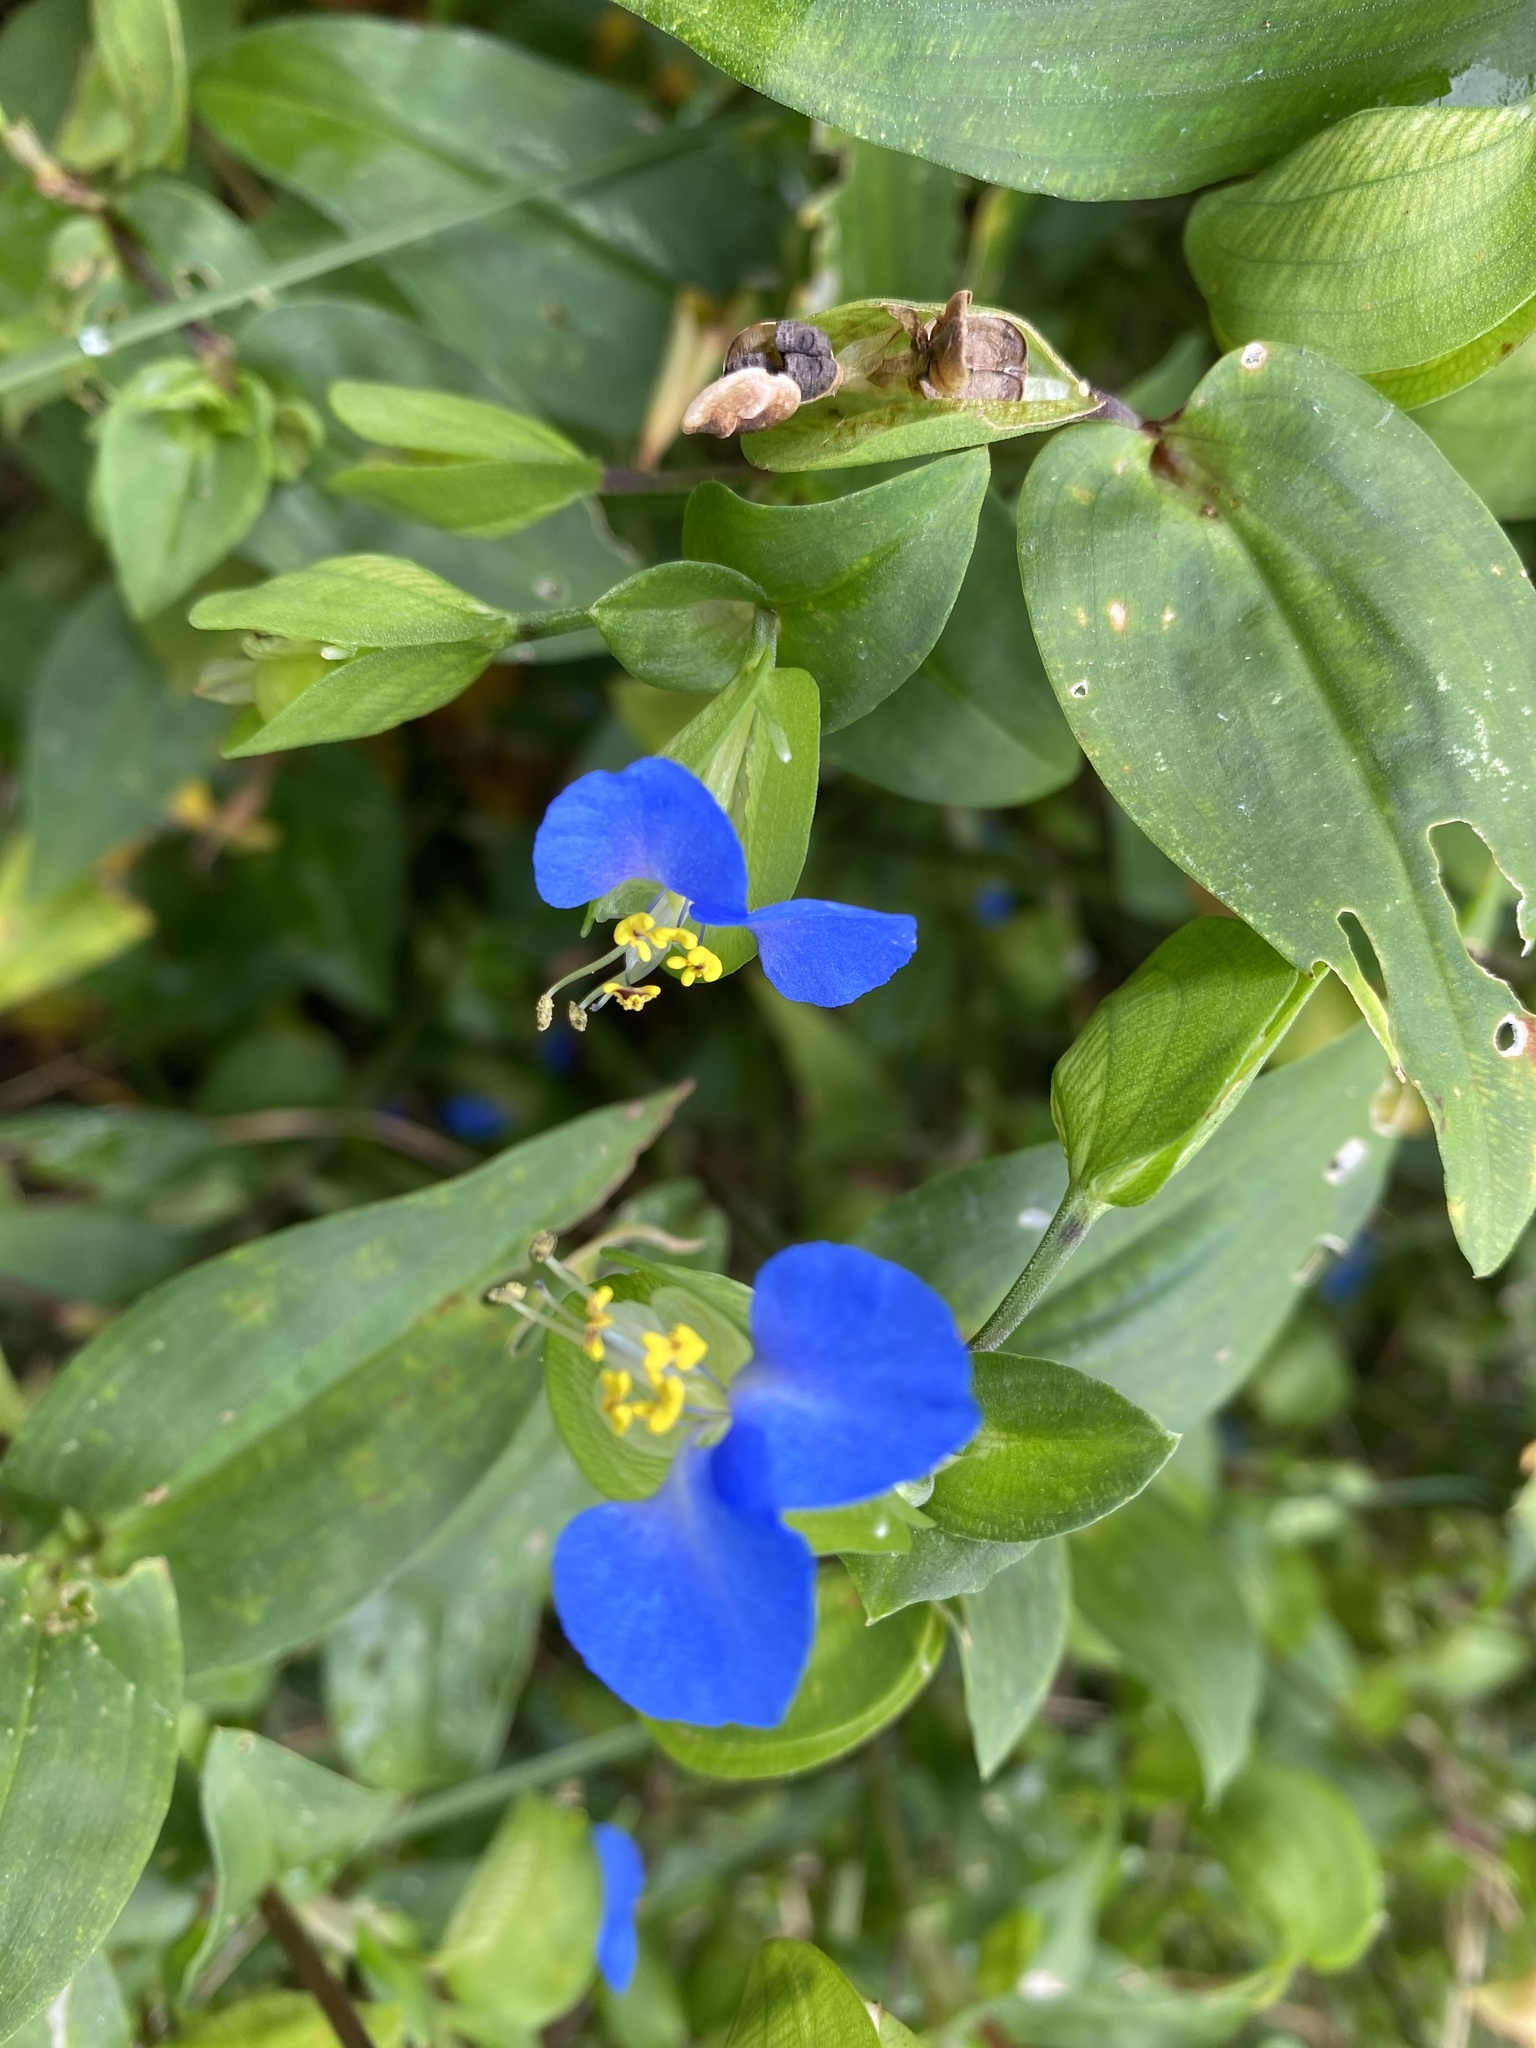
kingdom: Plantae
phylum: Tracheophyta
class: Liliopsida
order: Commelinales
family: Commelinaceae
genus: Commelina
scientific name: Commelina communis
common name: Asiatic dayflower
